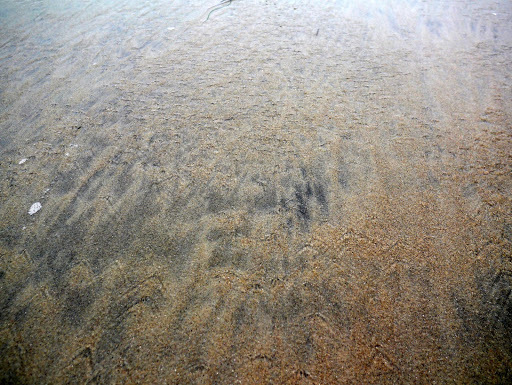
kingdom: Animalia
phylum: Arthropoda
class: Malacostraca
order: Decapoda
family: Hippidae
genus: Emerita
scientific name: Emerita analoga
